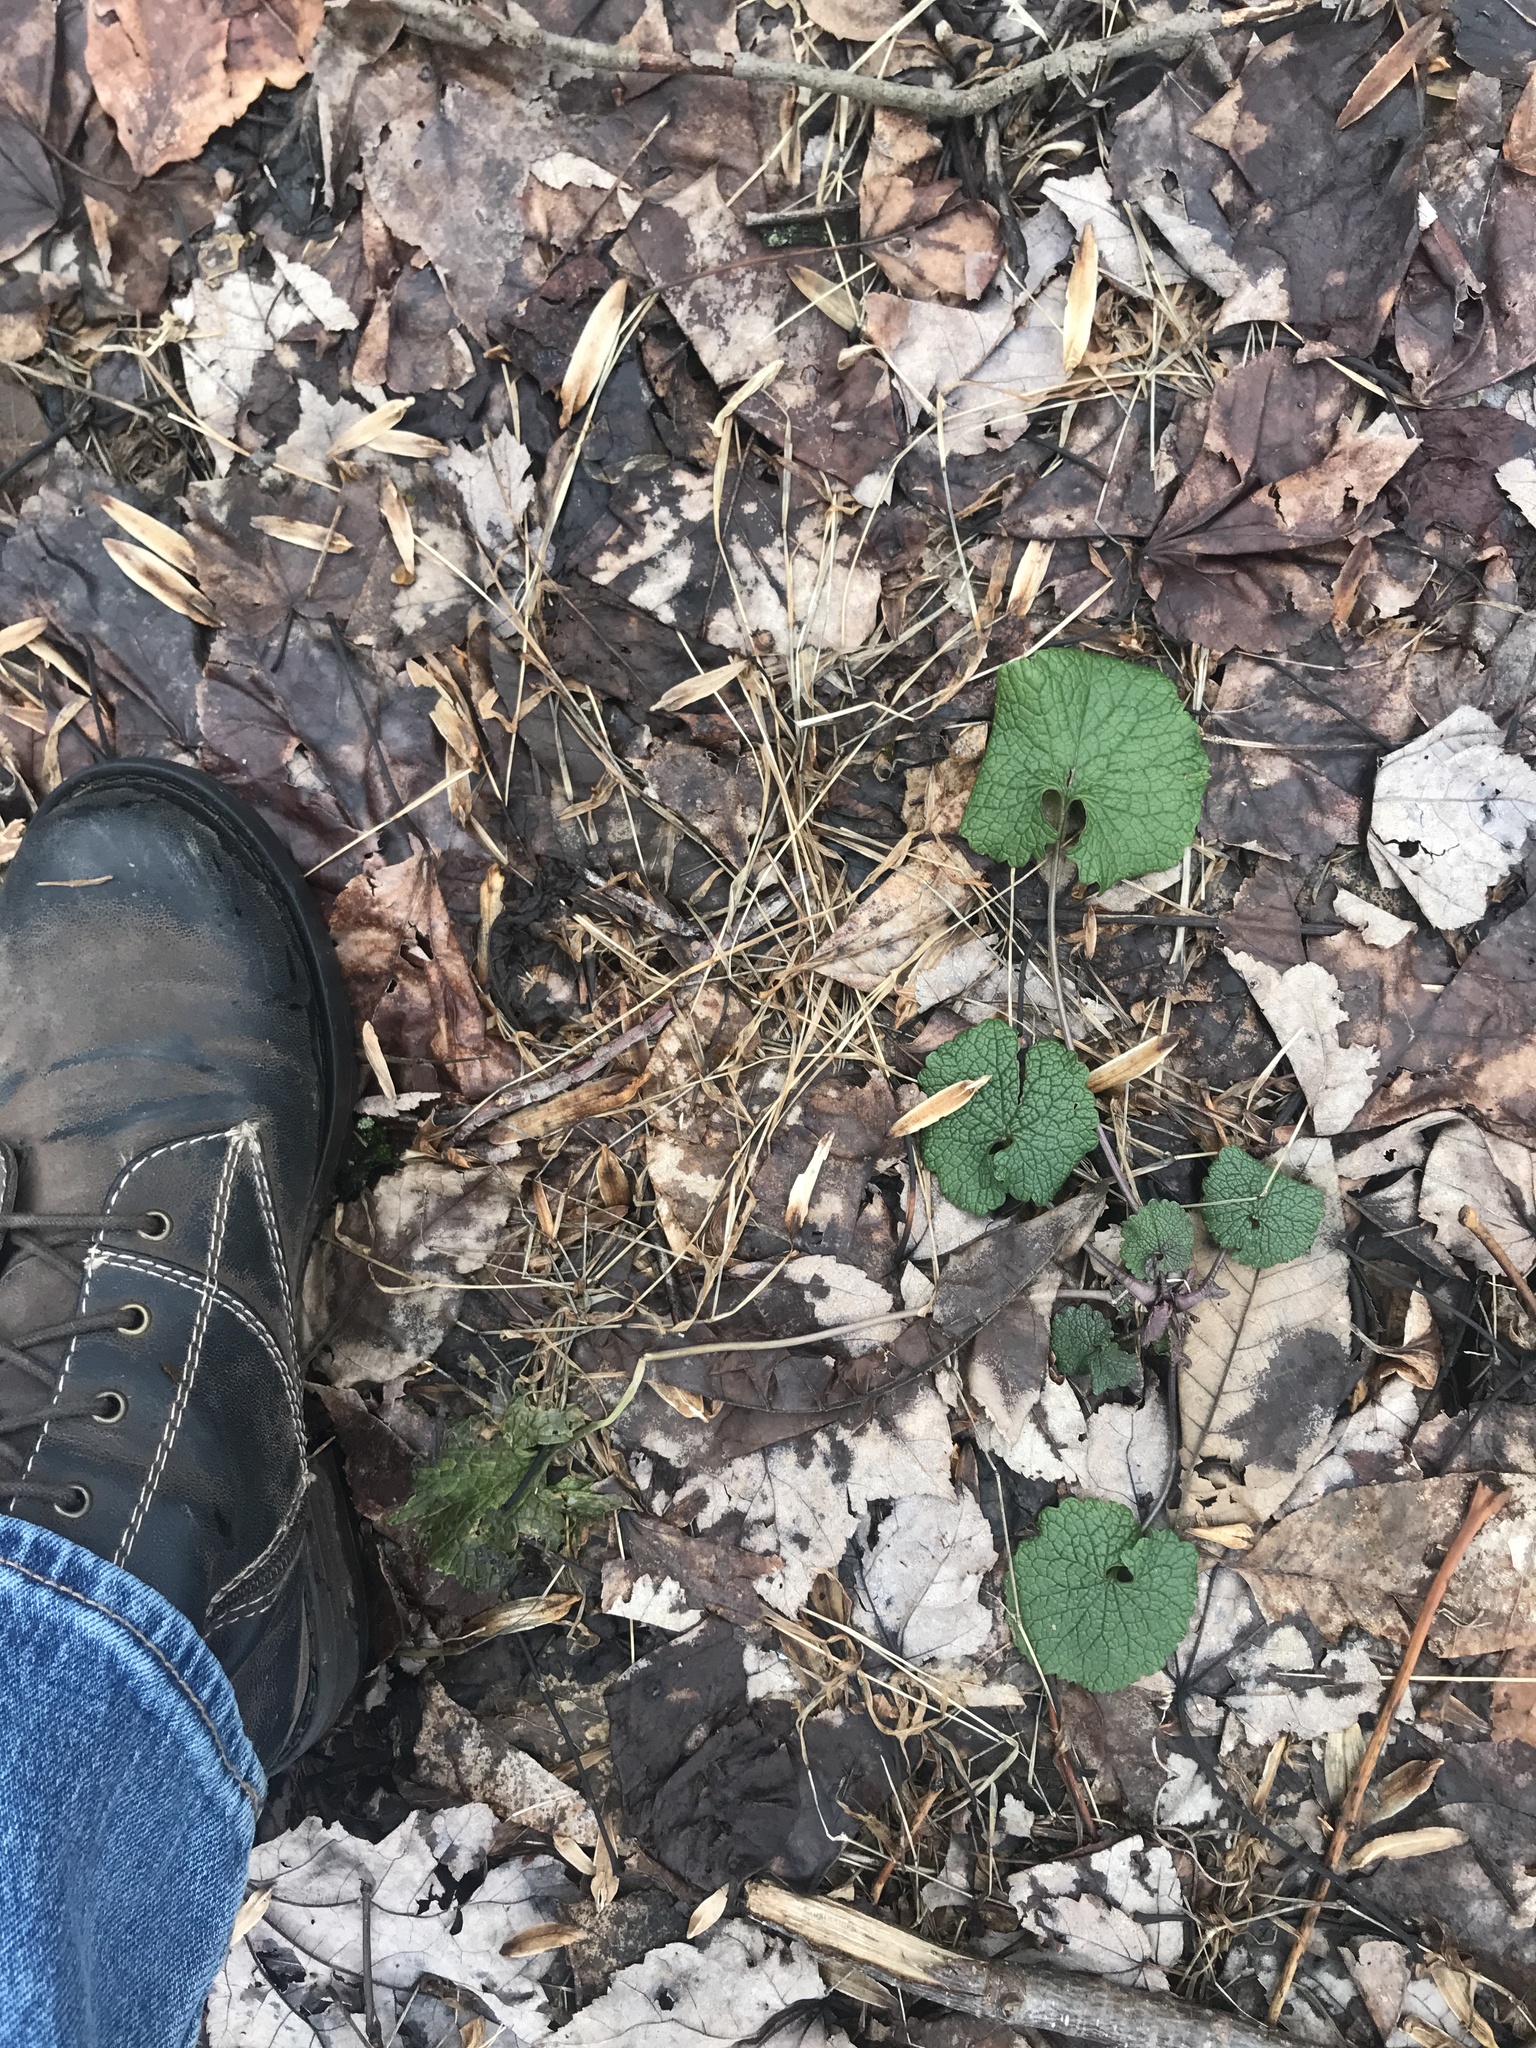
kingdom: Plantae
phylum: Tracheophyta
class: Magnoliopsida
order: Brassicales
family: Brassicaceae
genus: Alliaria
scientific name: Alliaria petiolata
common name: Garlic mustard
